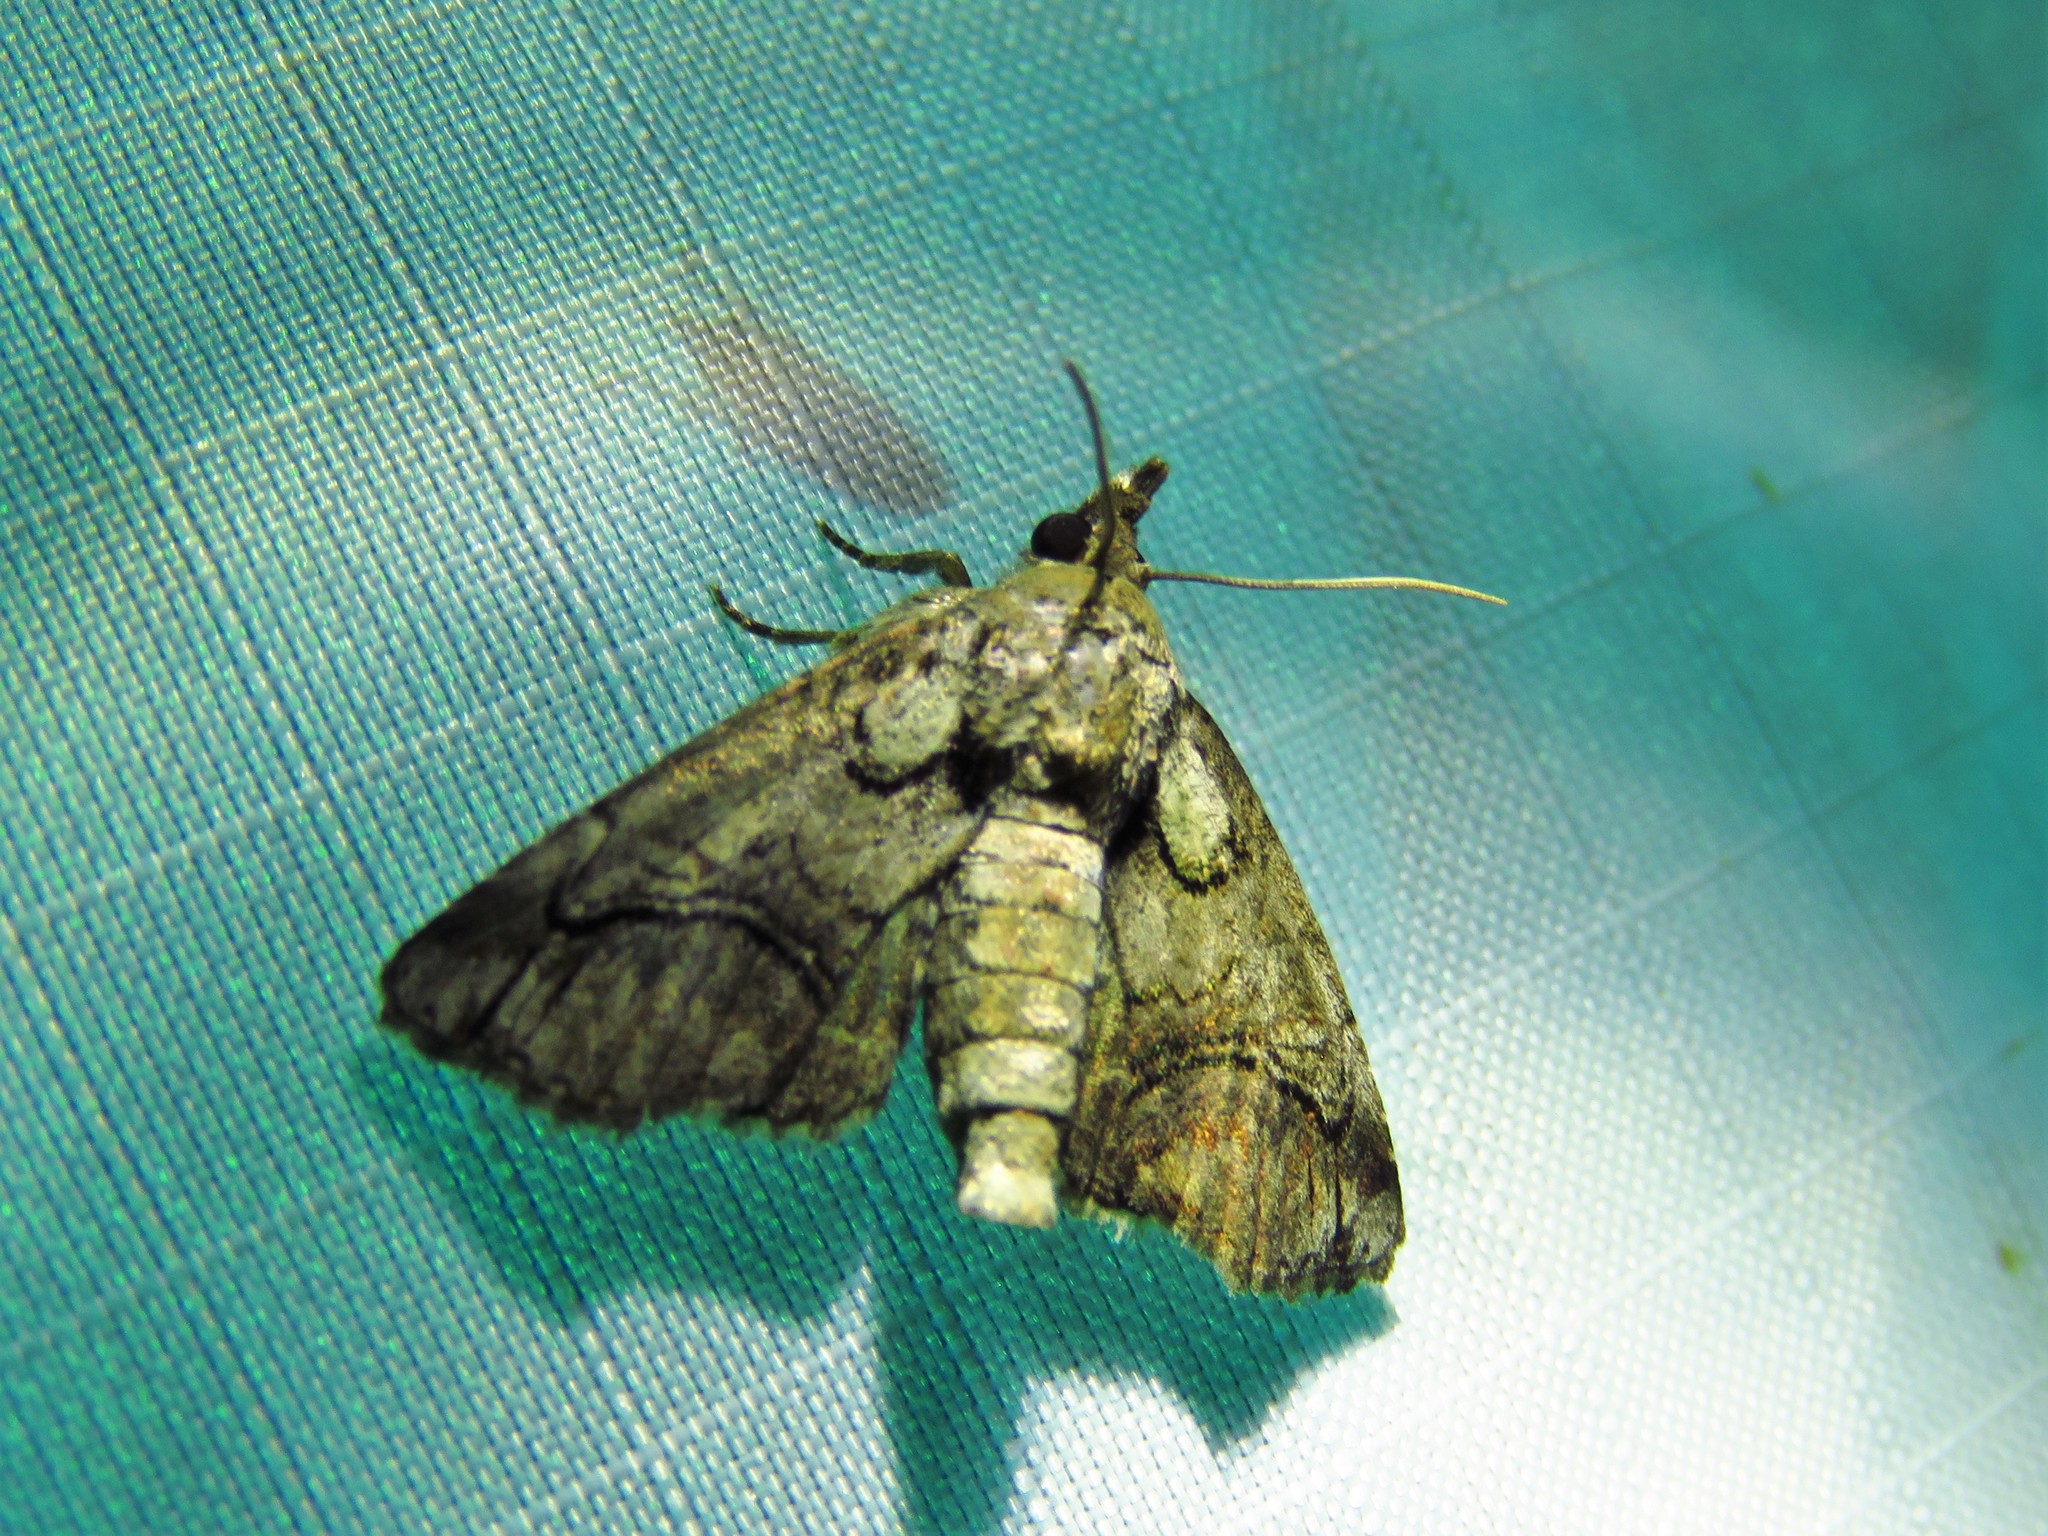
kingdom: Animalia
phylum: Arthropoda
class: Insecta
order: Lepidoptera
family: Euteliidae
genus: Paectes
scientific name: Paectes abrostoloides
